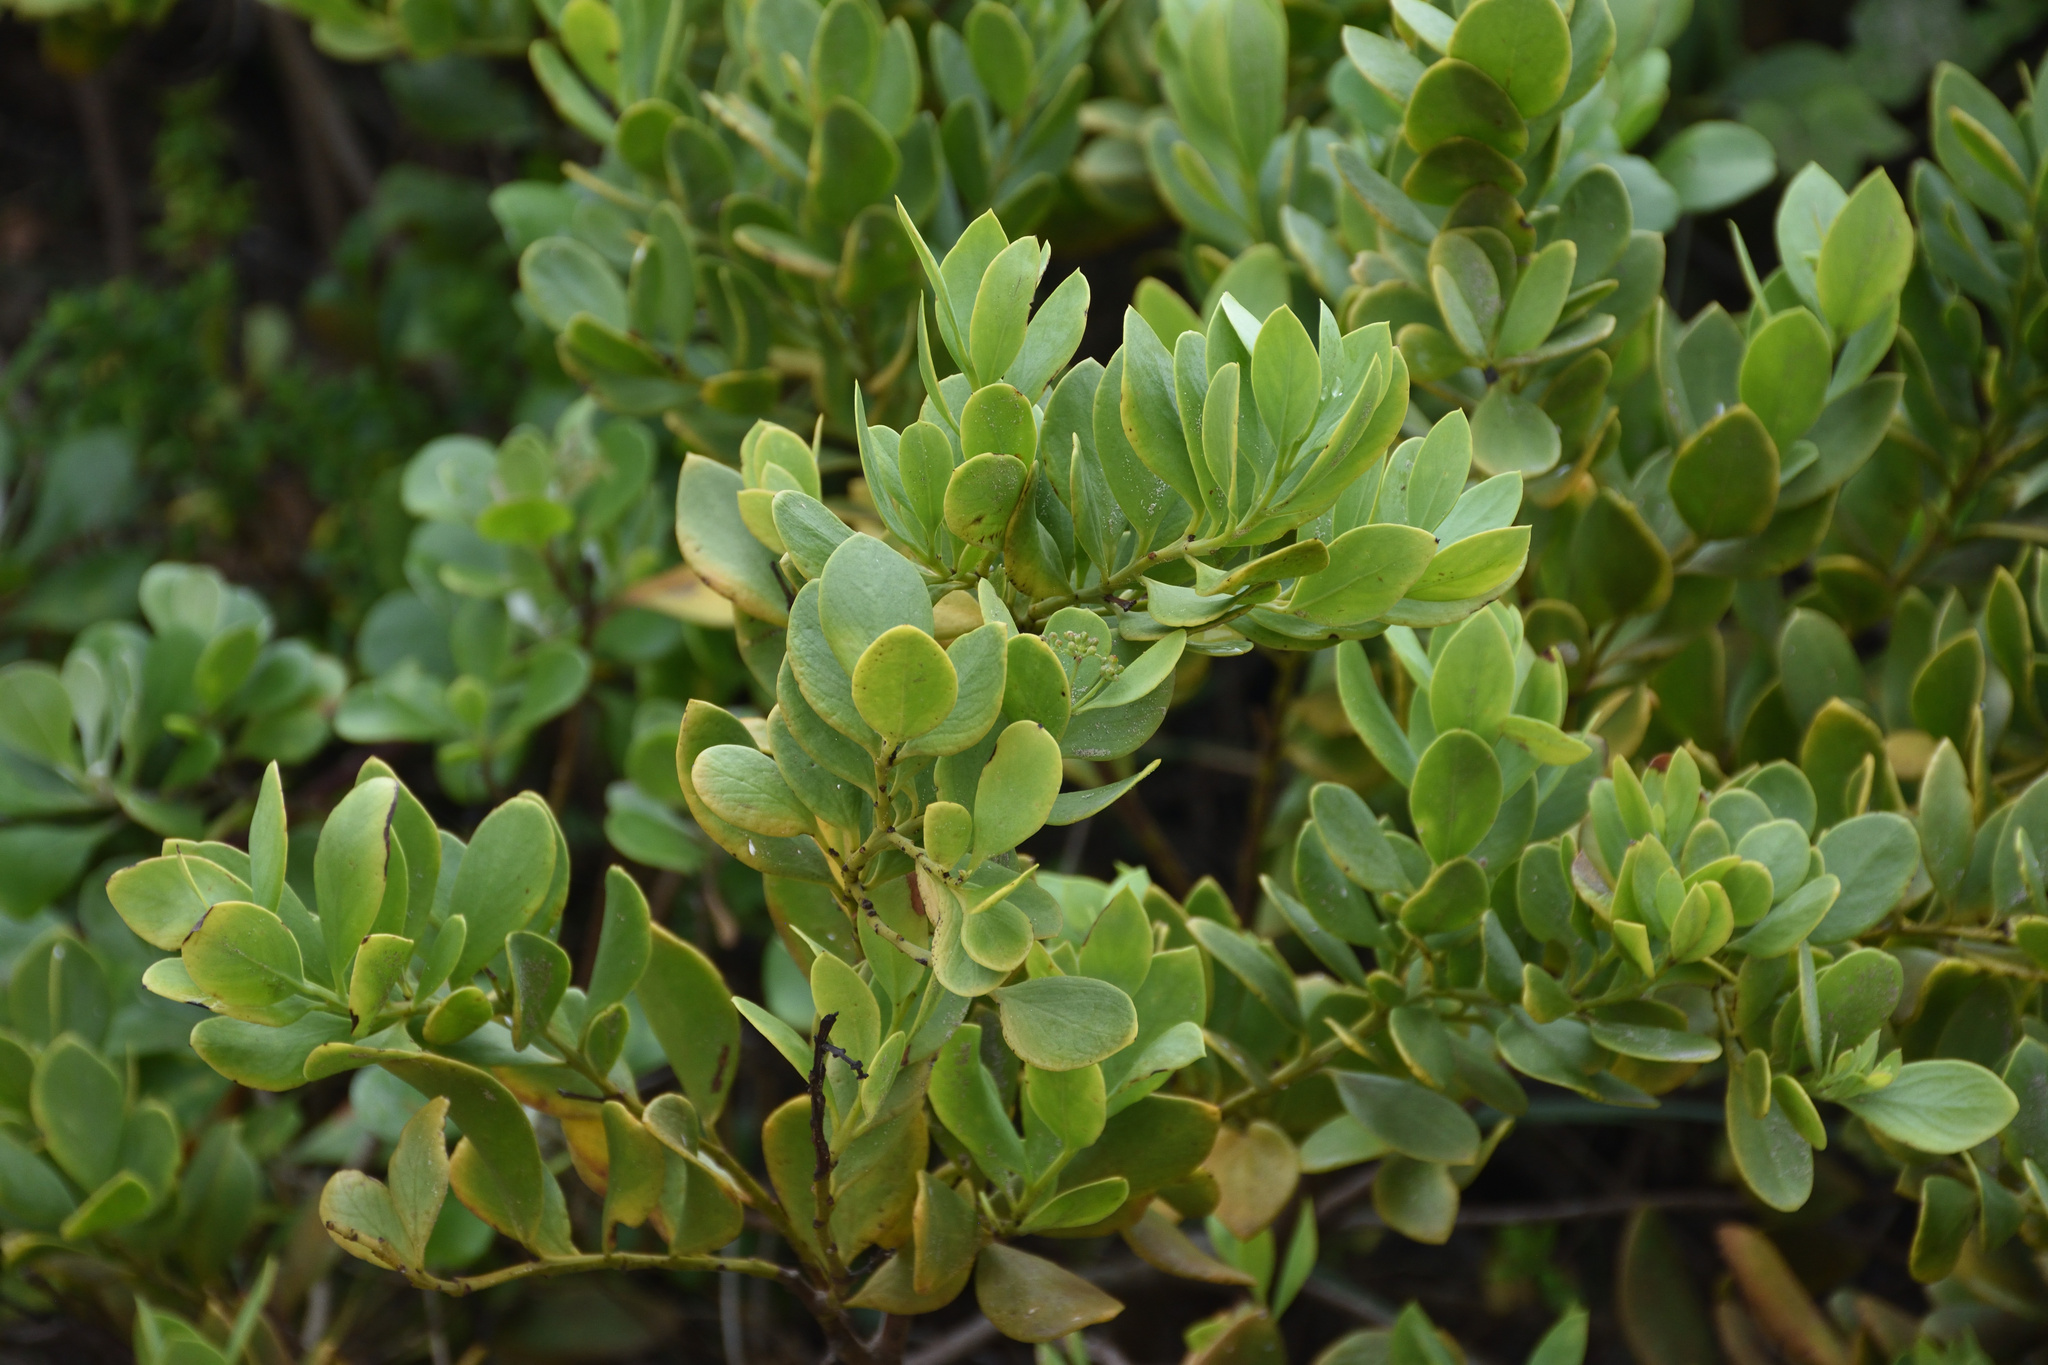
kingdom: Plantae
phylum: Tracheophyta
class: Magnoliopsida
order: Santalales
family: Santalaceae
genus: Osyris
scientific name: Osyris compressa
